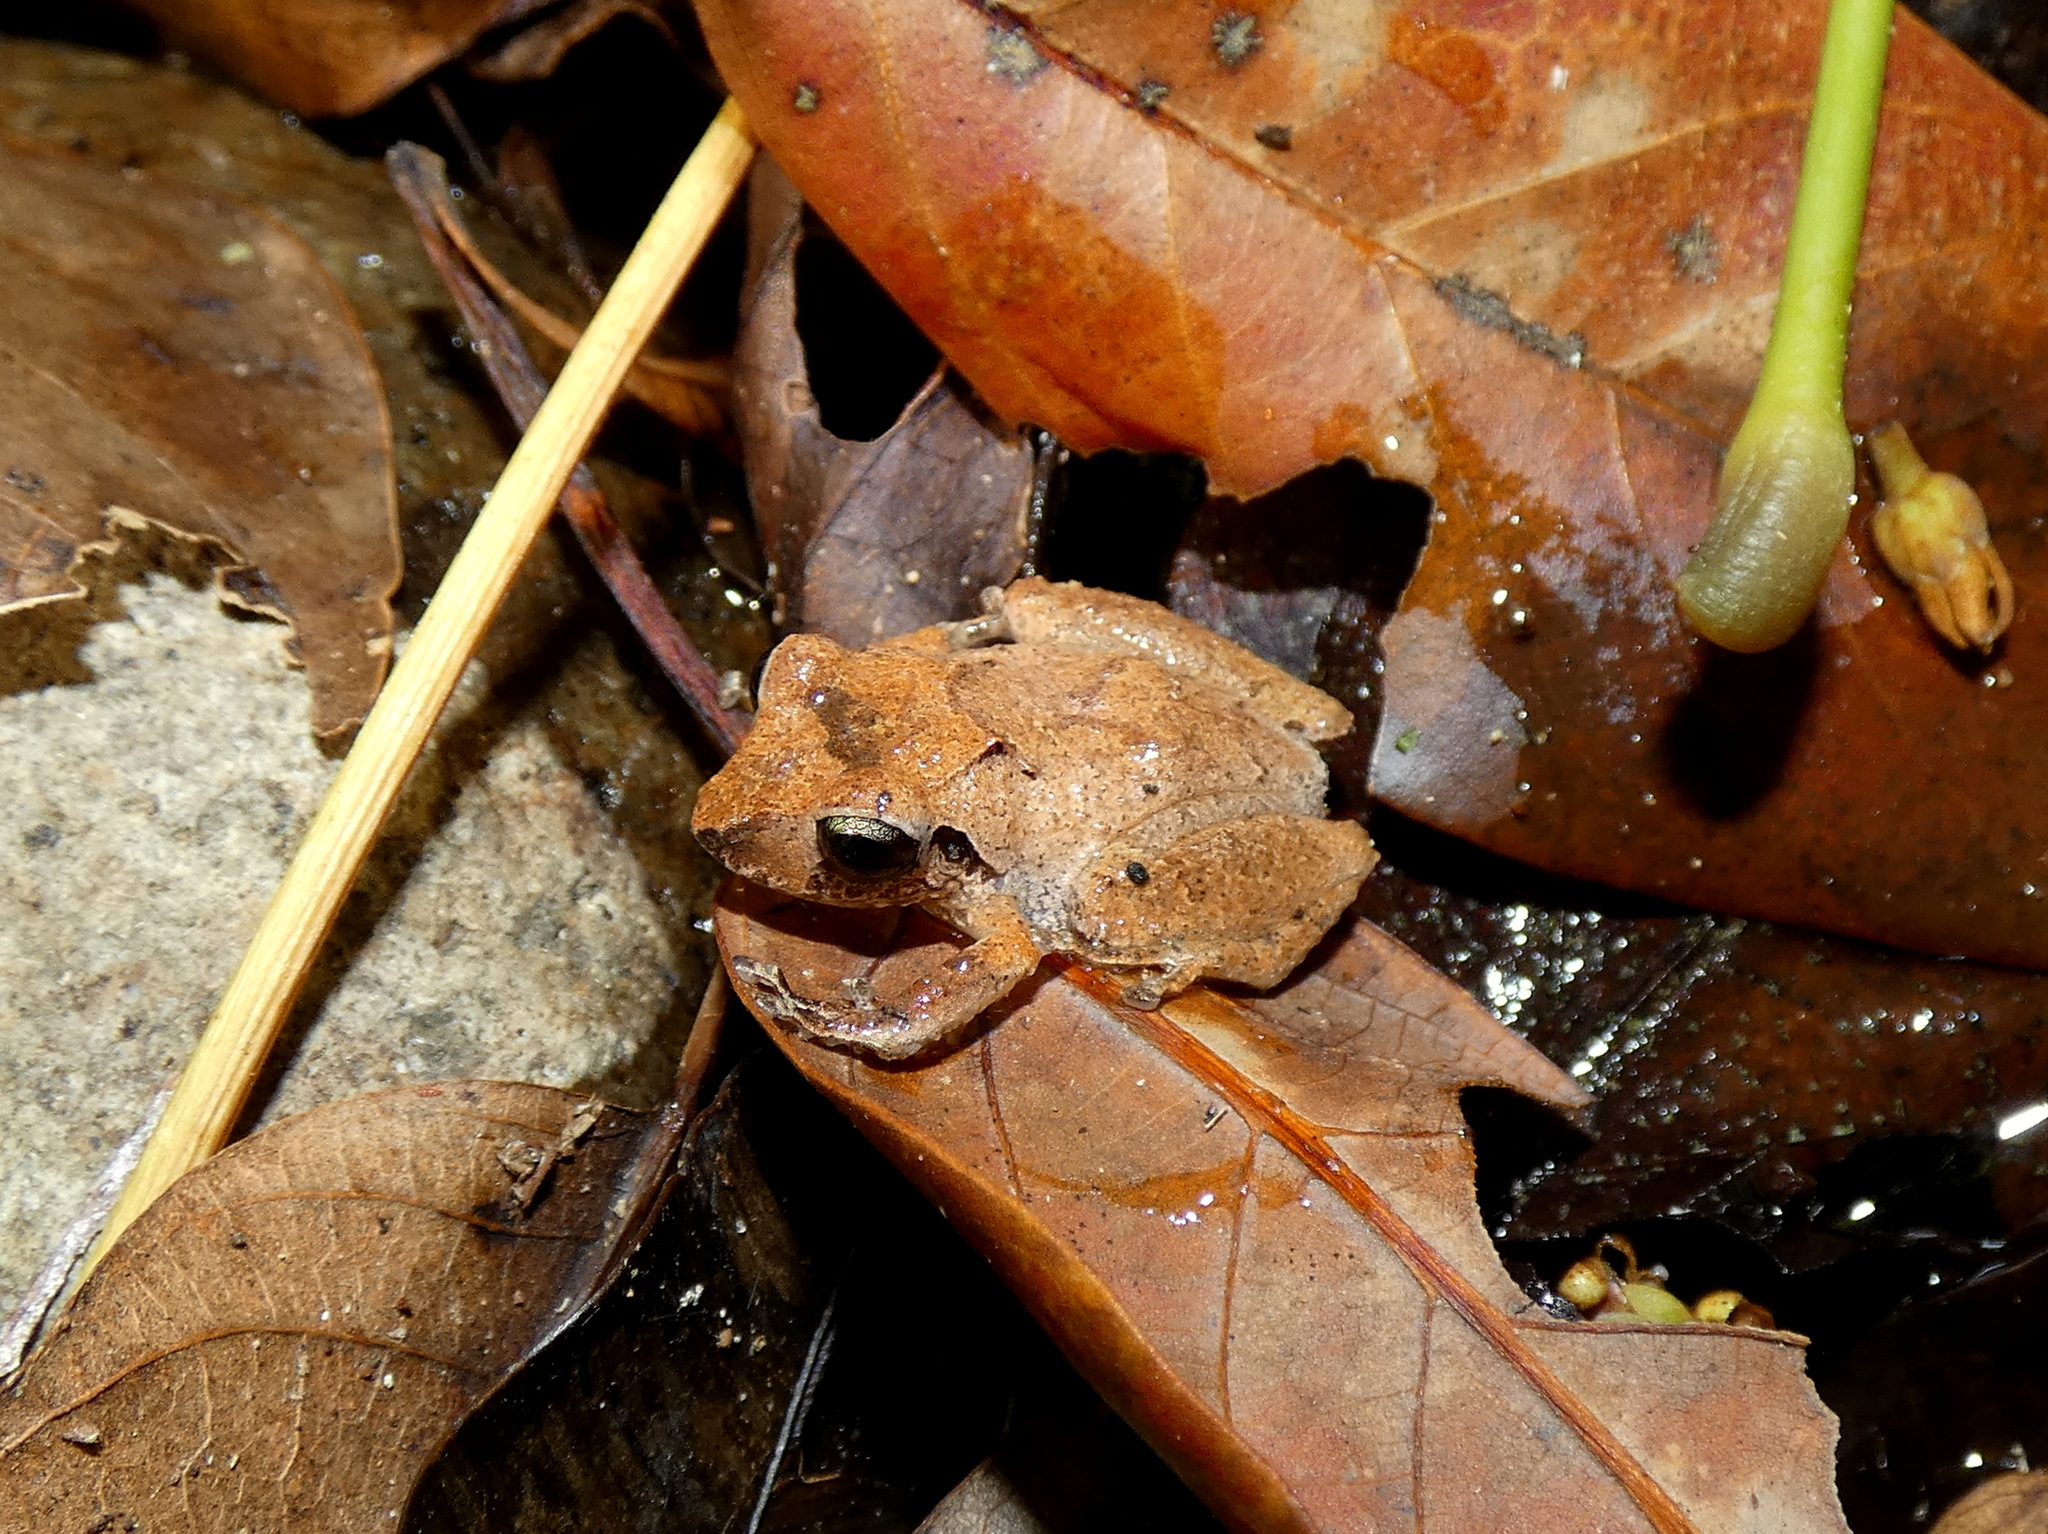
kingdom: Animalia
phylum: Chordata
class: Amphibia
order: Anura
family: Craugastoridae
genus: Pristimantis
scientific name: Pristimantis taeniatus
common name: Banded robber frog
